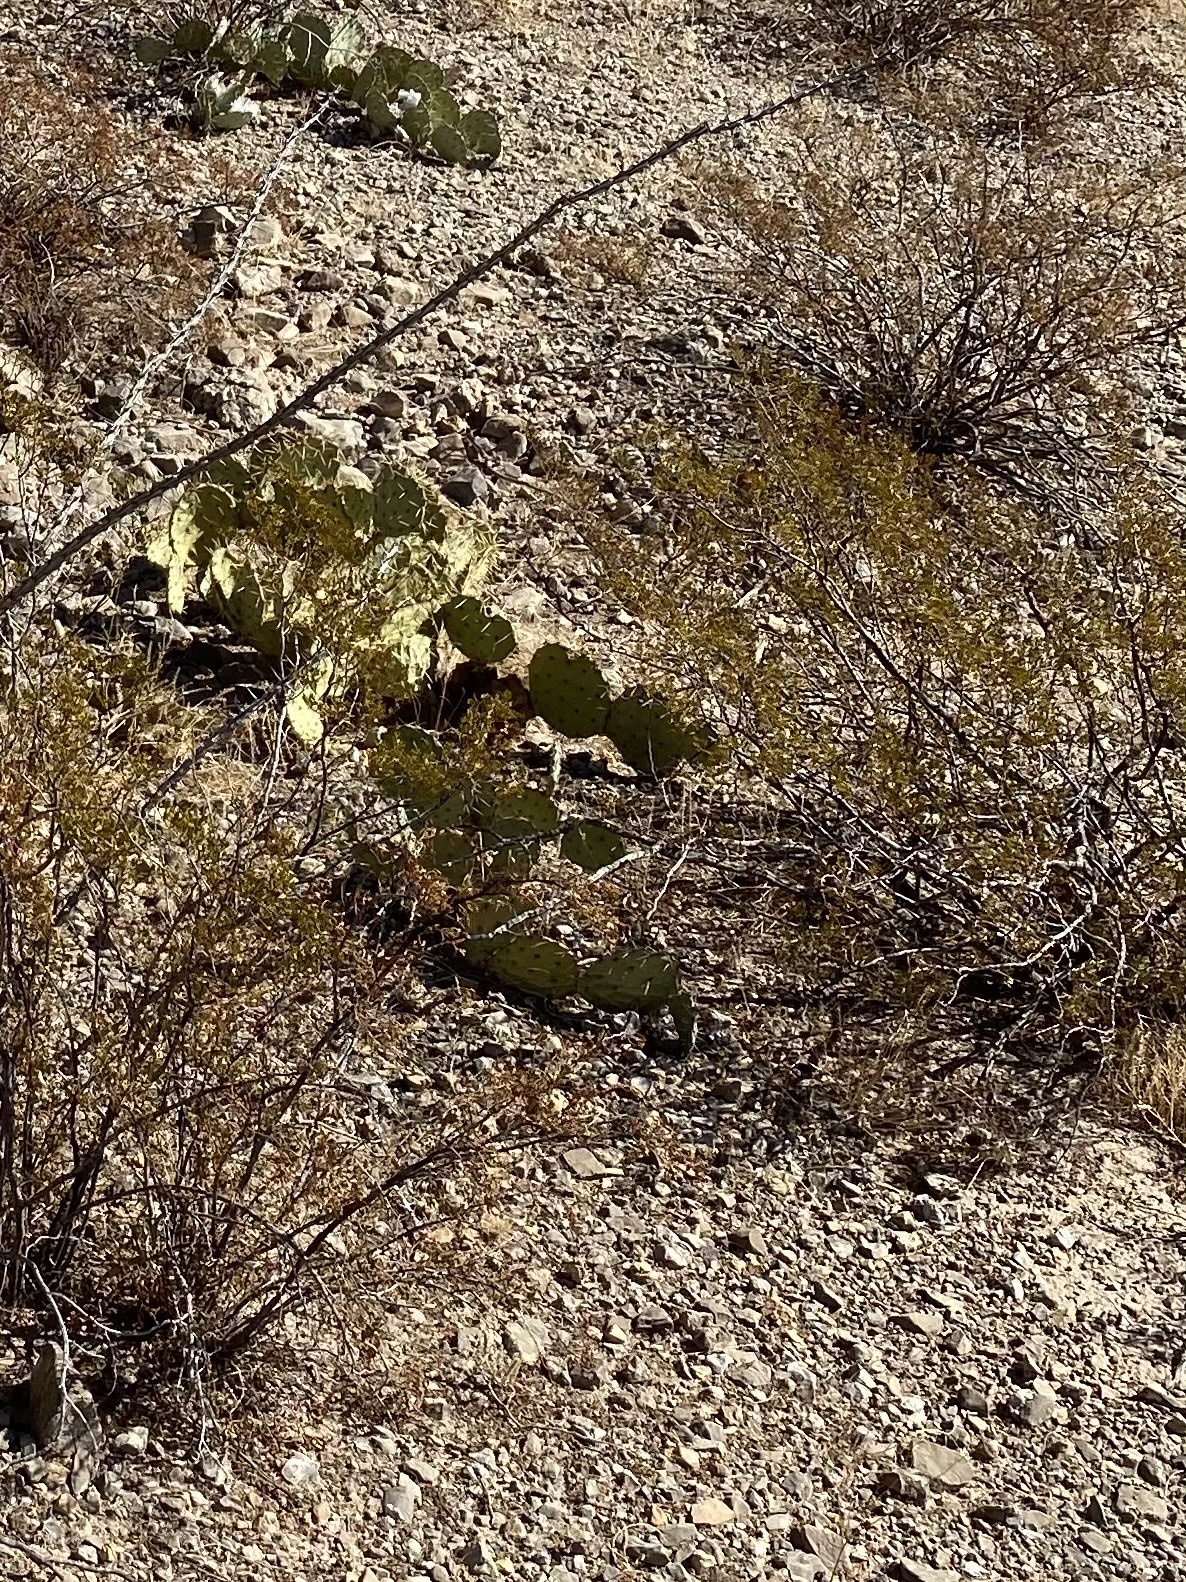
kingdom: Plantae
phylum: Tracheophyta
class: Magnoliopsida
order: Zygophyllales
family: Zygophyllaceae
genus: Larrea
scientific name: Larrea tridentata
